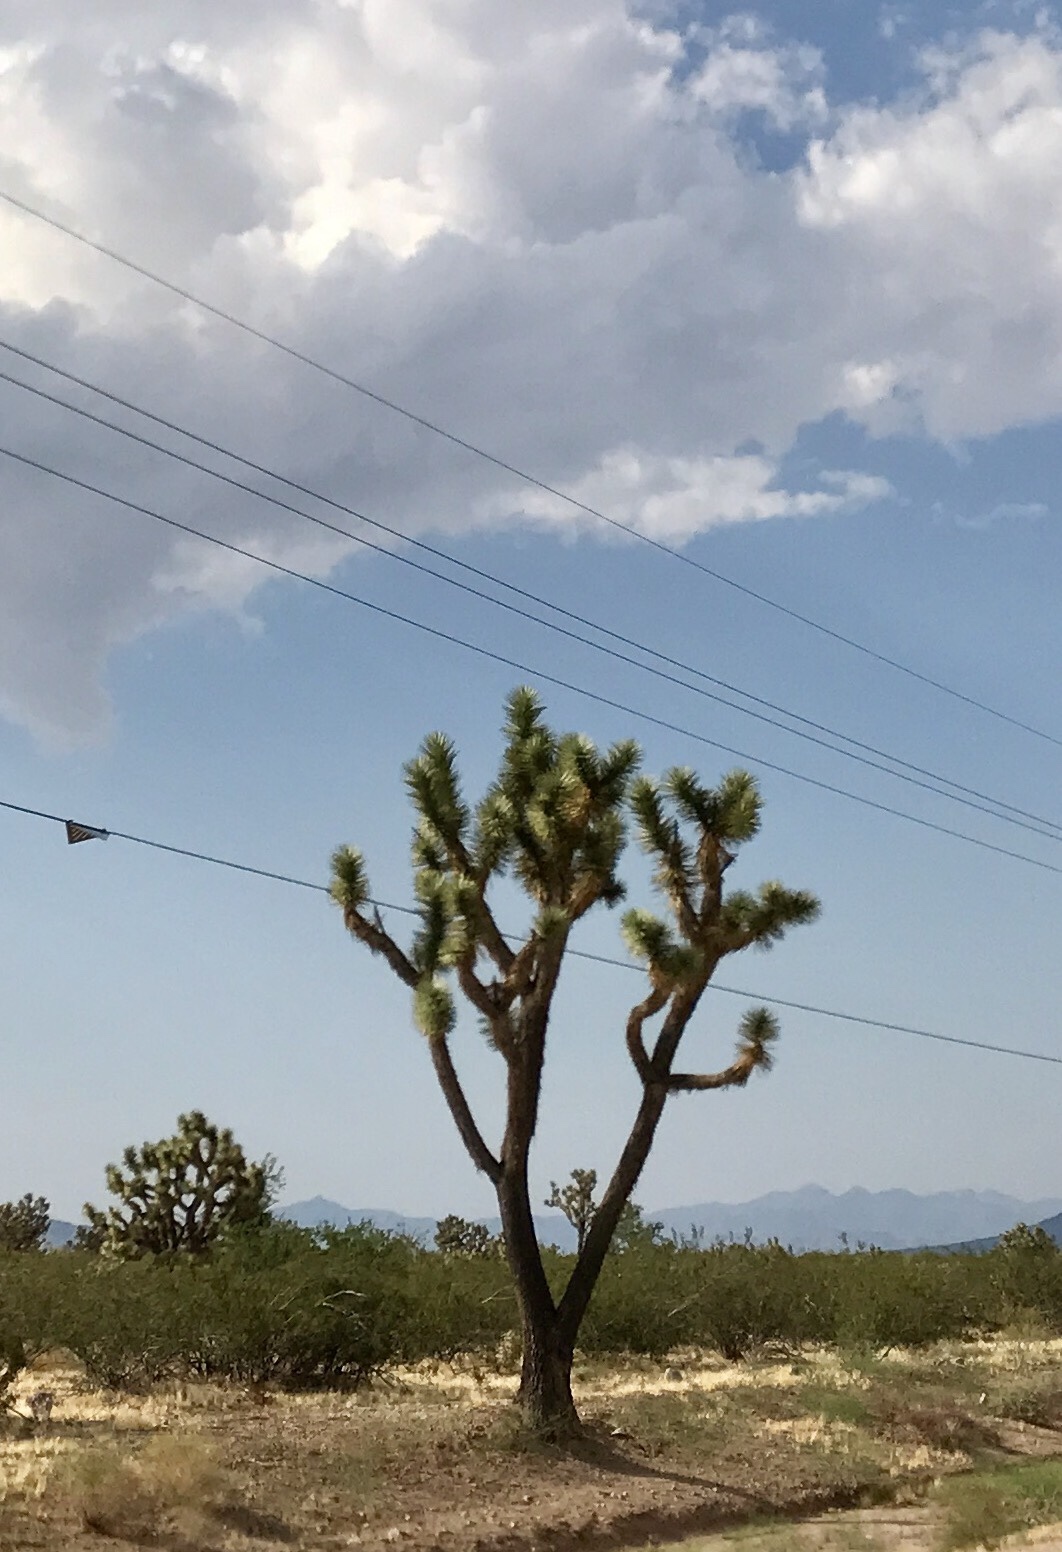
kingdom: Plantae
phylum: Tracheophyta
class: Liliopsida
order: Asparagales
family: Asparagaceae
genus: Yucca
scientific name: Yucca brevifolia
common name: Joshua tree
